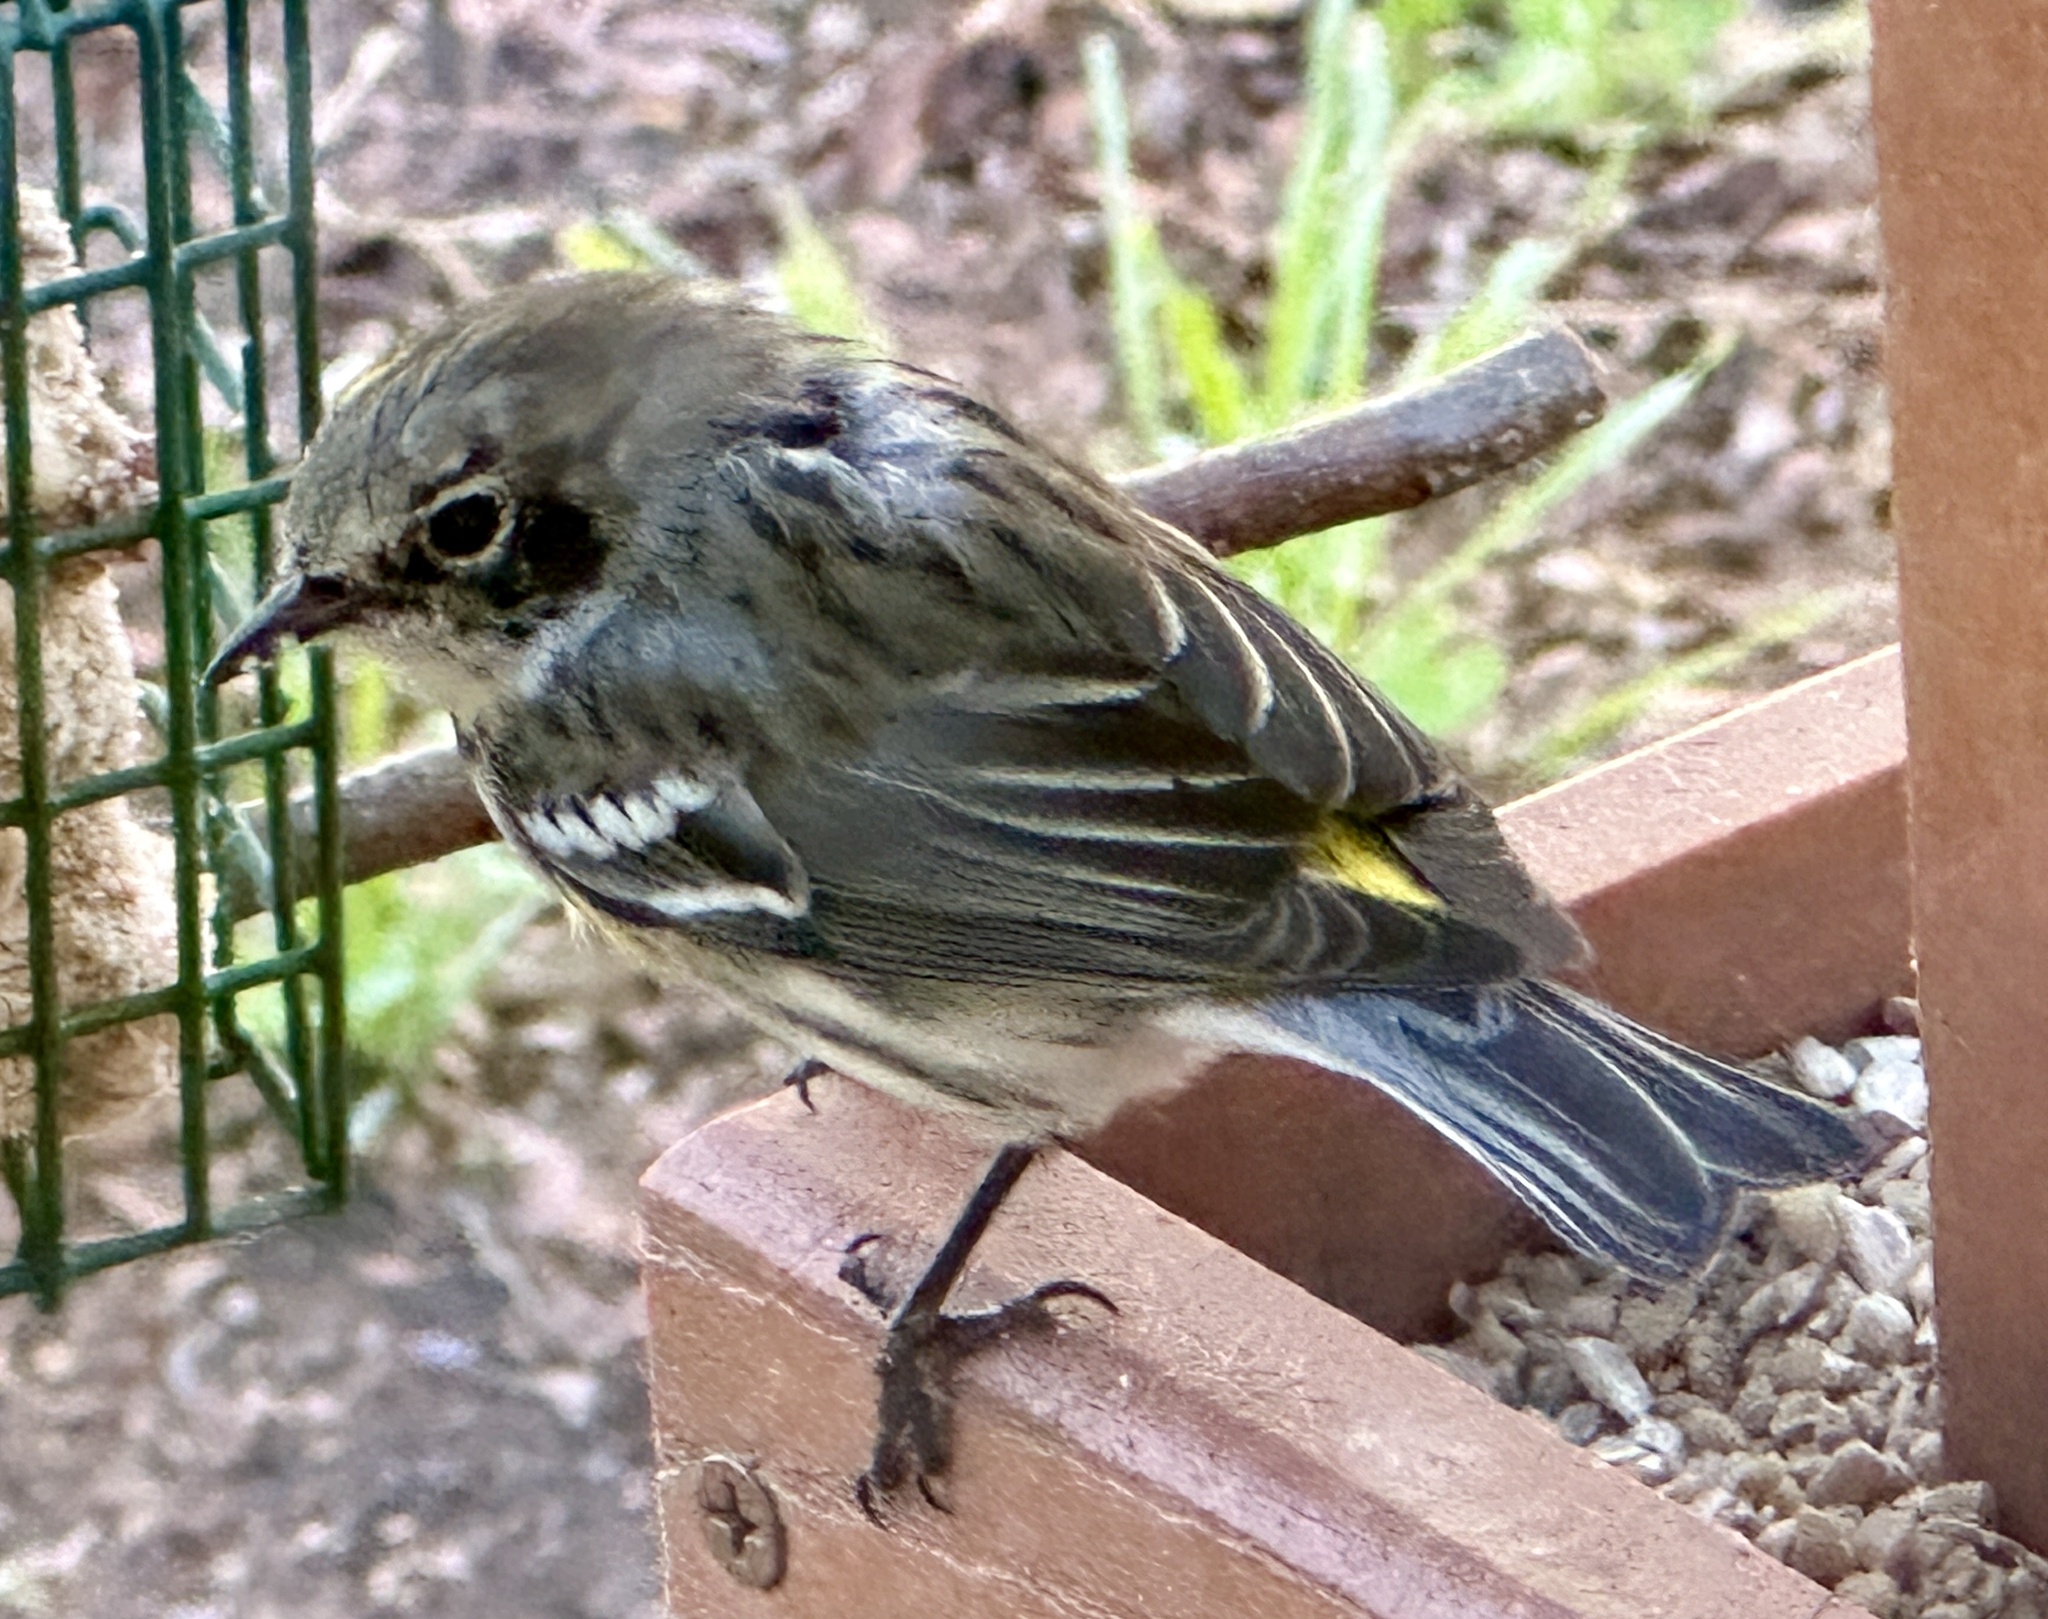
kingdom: Animalia
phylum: Chordata
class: Aves
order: Passeriformes
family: Parulidae
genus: Setophaga
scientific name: Setophaga coronata
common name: Myrtle warbler
